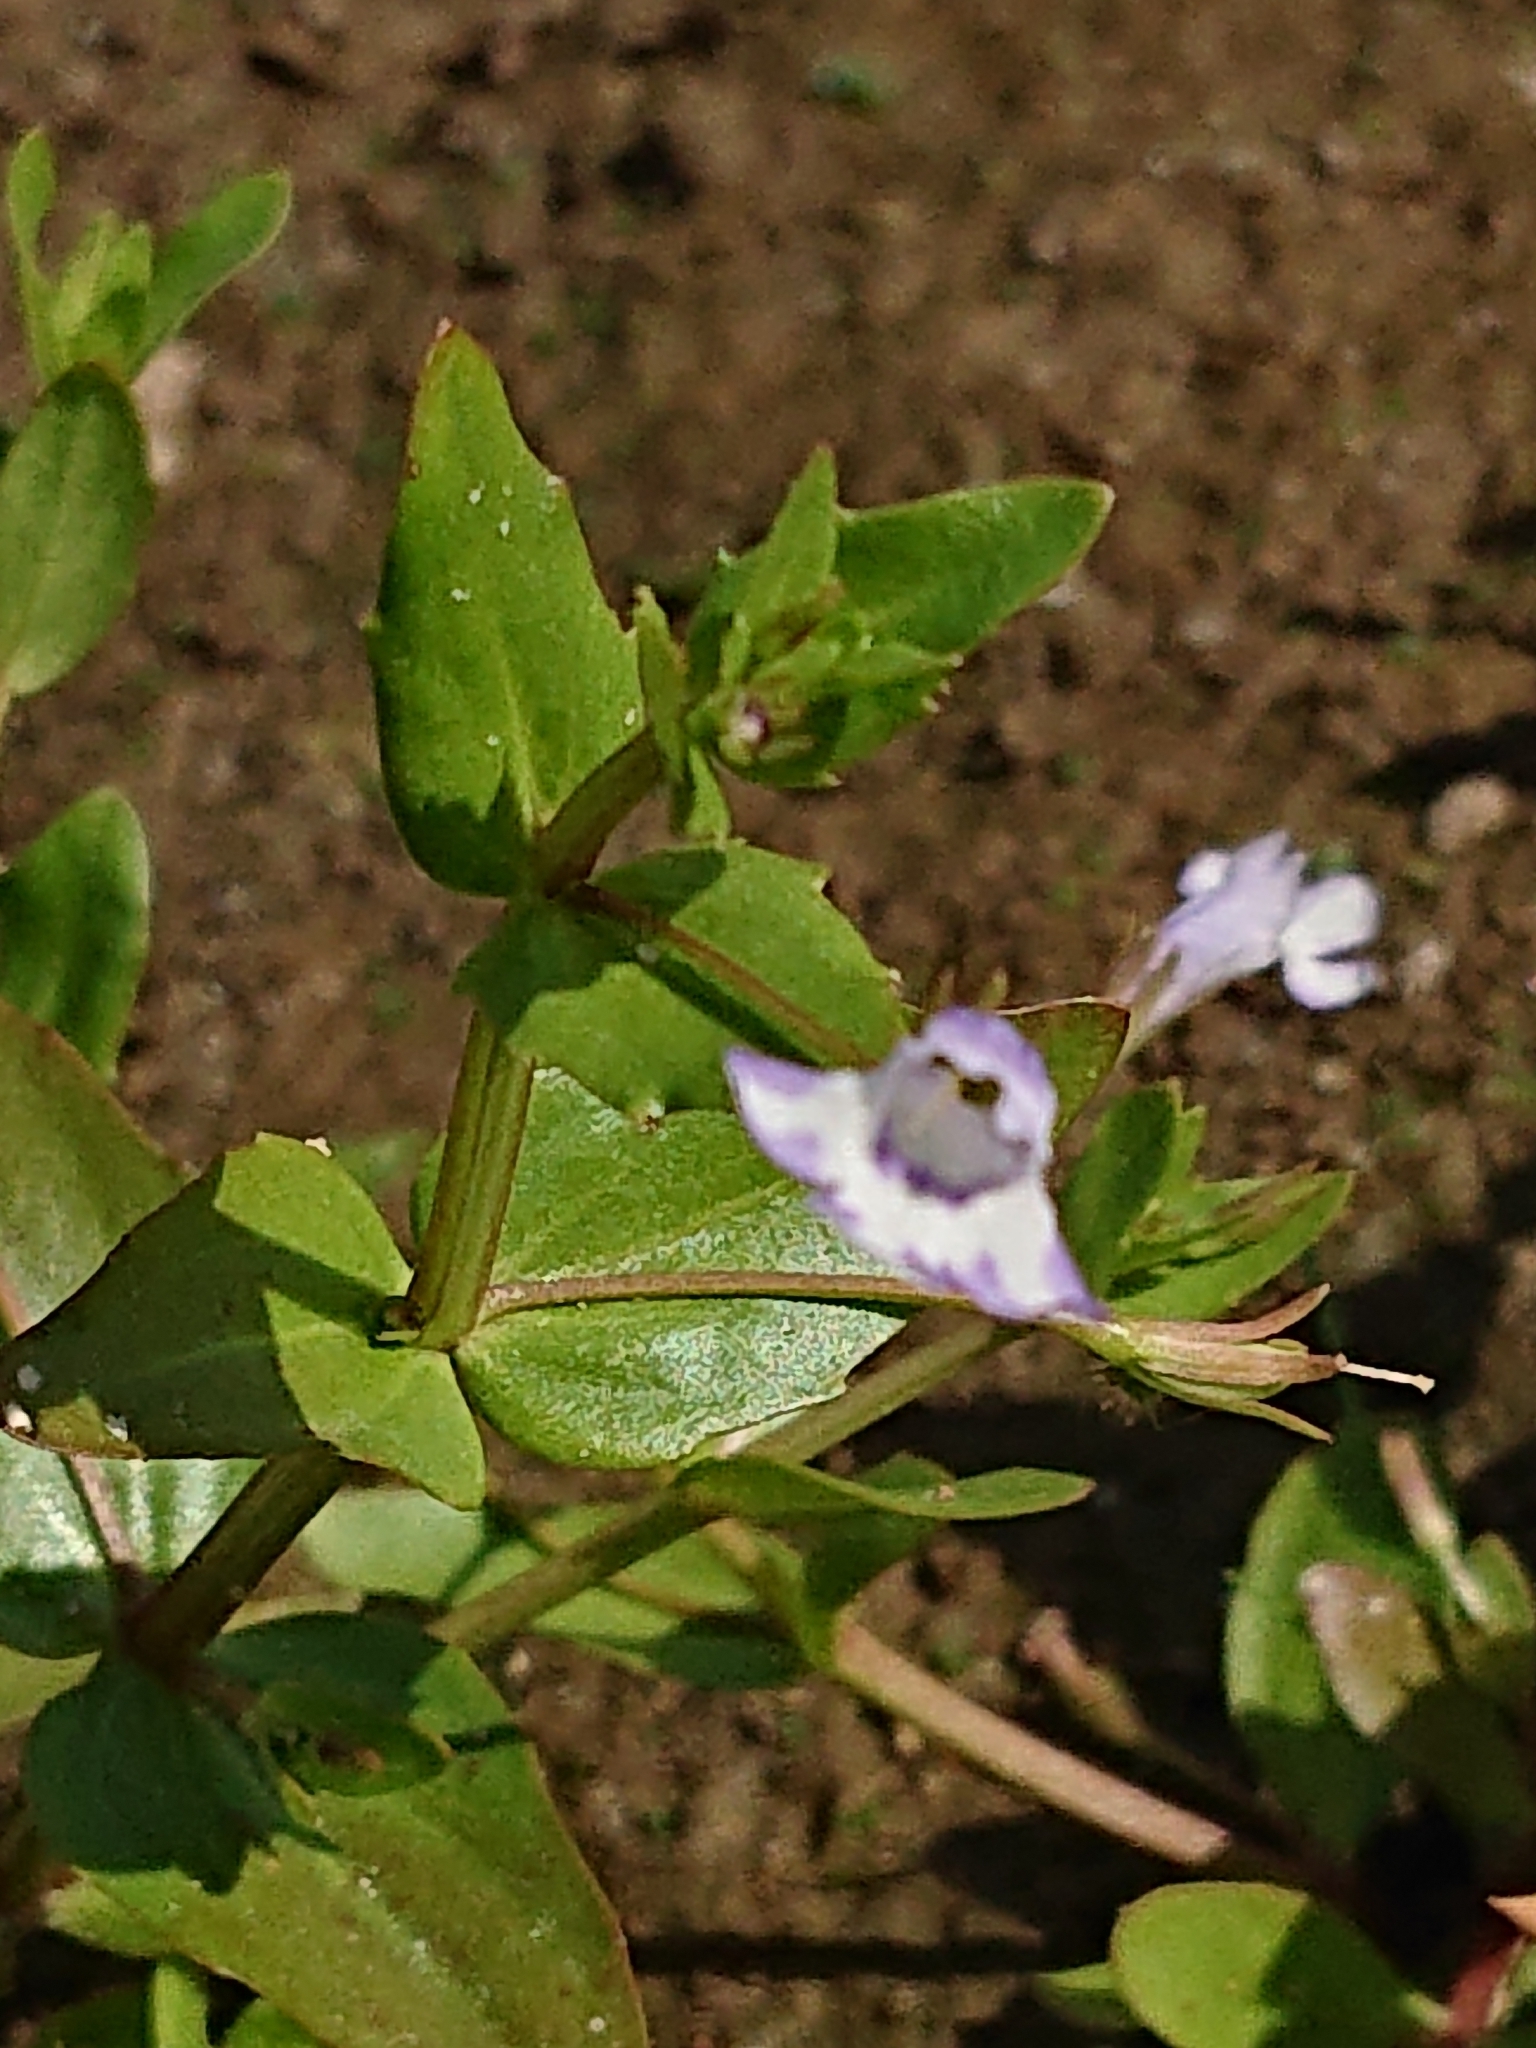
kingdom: Plantae
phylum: Tracheophyta
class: Magnoliopsida
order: Lamiales
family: Linderniaceae
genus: Lindernia
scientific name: Lindernia dubia
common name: Annual false pimpernel
